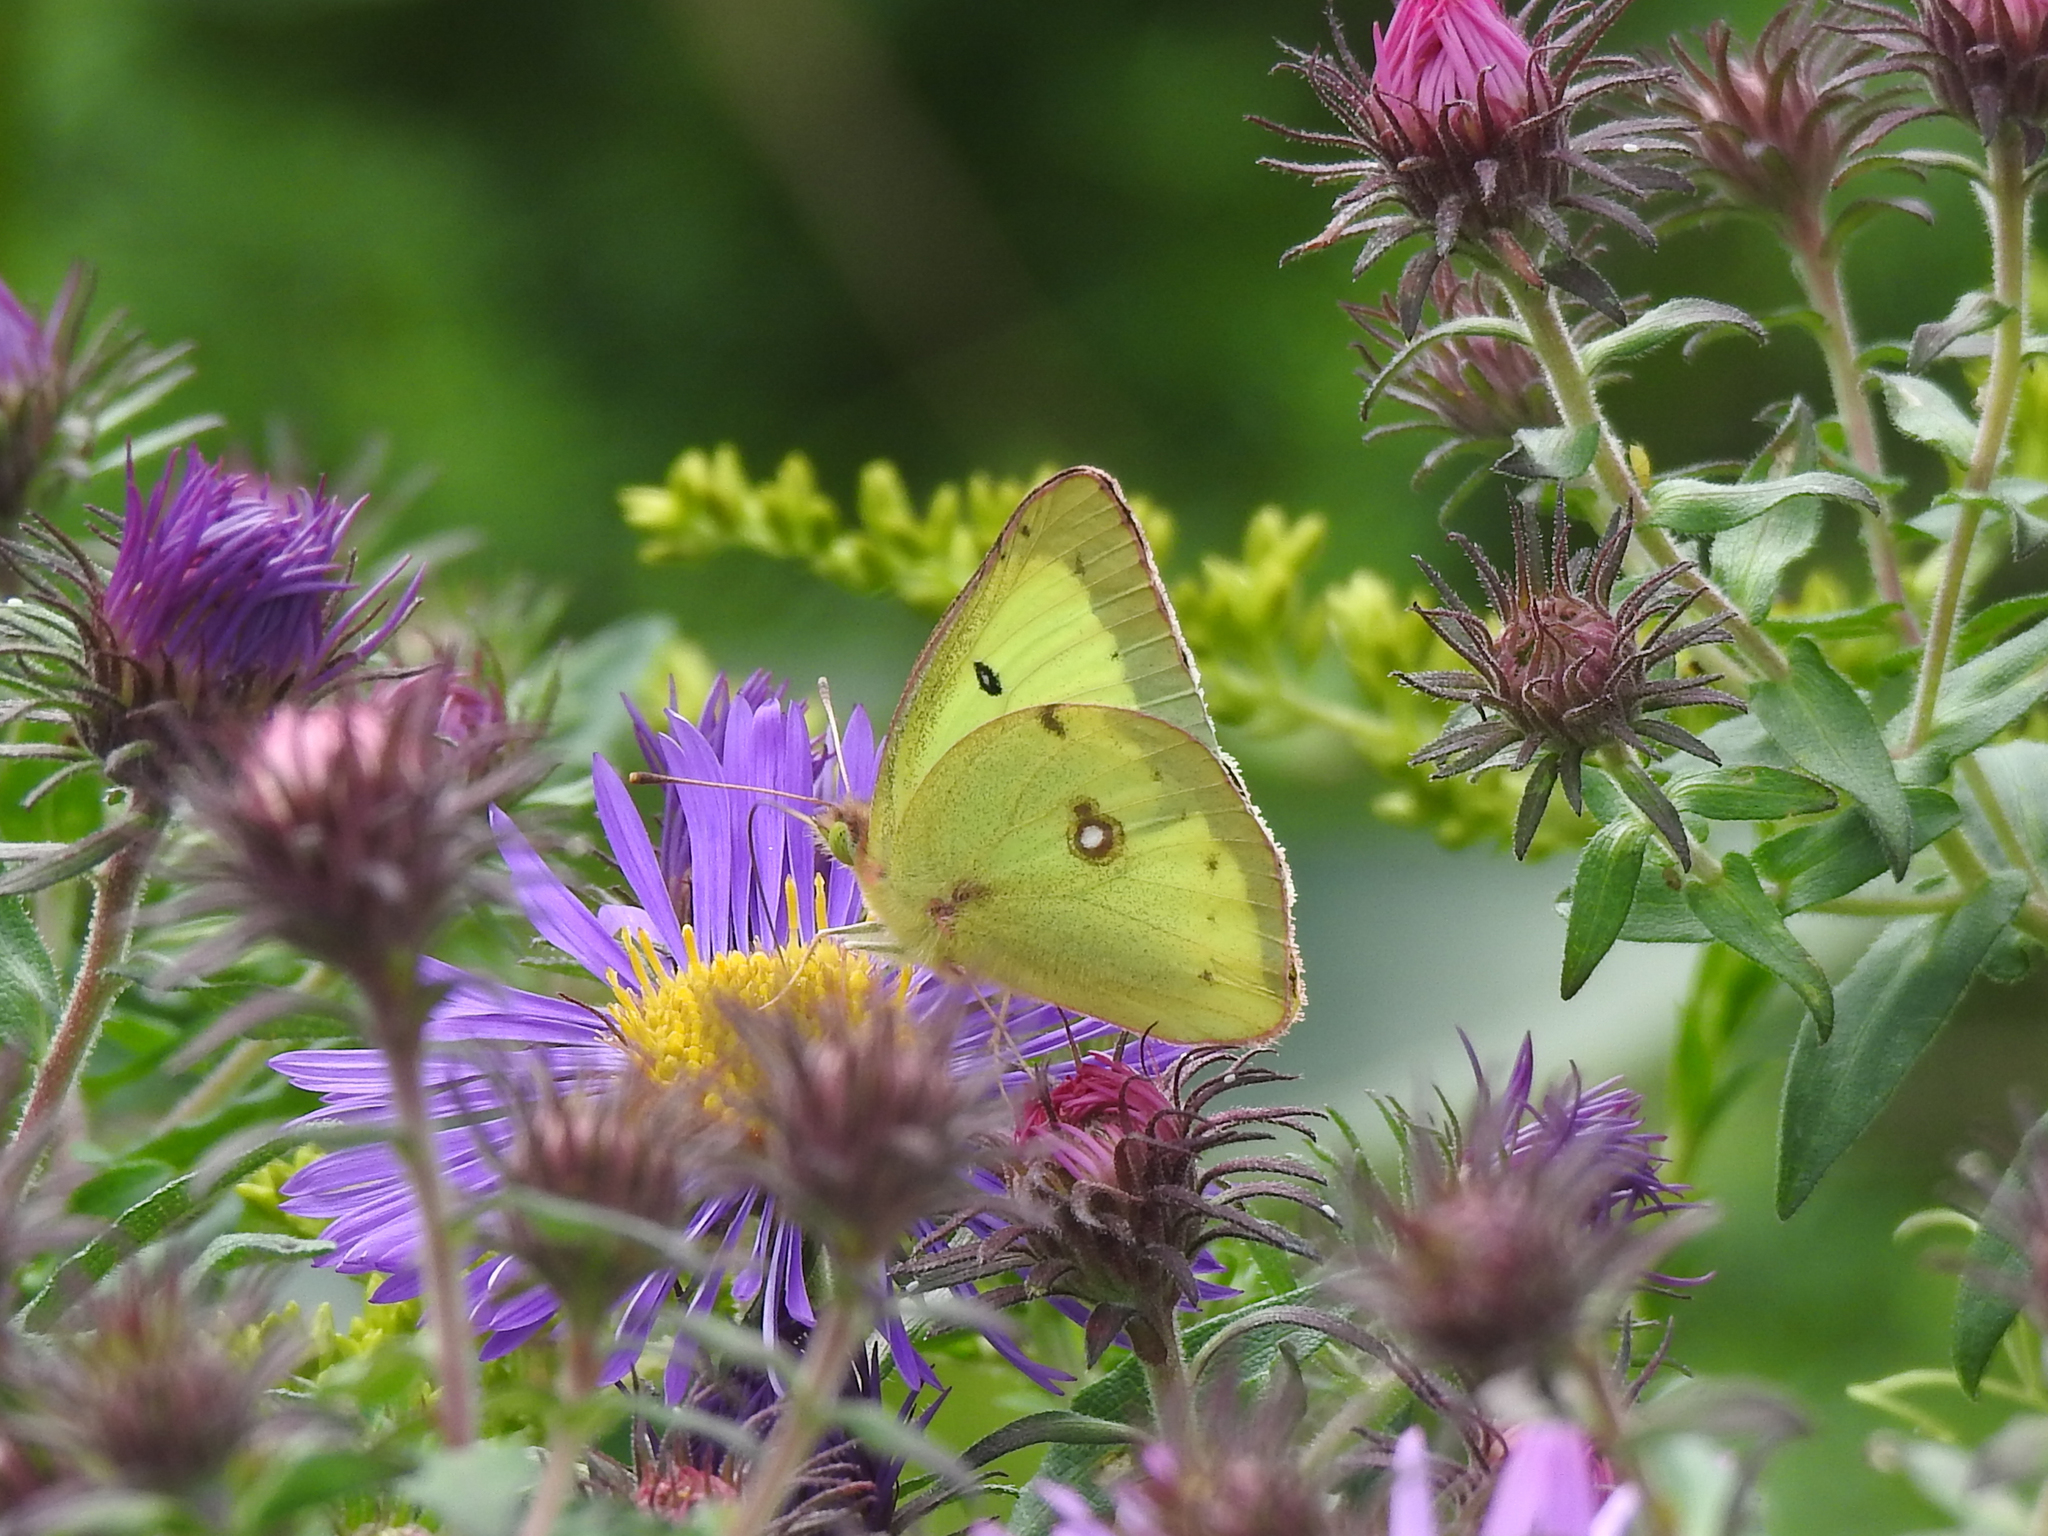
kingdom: Animalia
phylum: Arthropoda
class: Insecta
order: Lepidoptera
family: Pieridae
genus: Colias
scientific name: Colias philodice
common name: Clouded sulphur
